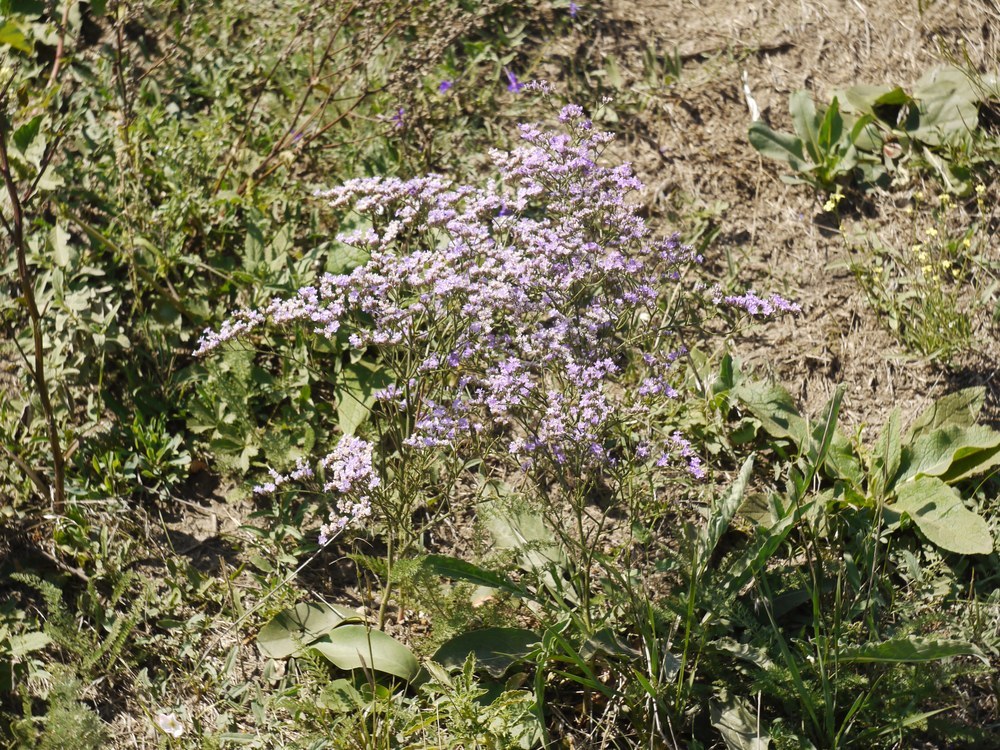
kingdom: Plantae
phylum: Tracheophyta
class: Magnoliopsida
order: Caryophyllales
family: Plumbaginaceae
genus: Limonium
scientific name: Limonium gmelini
